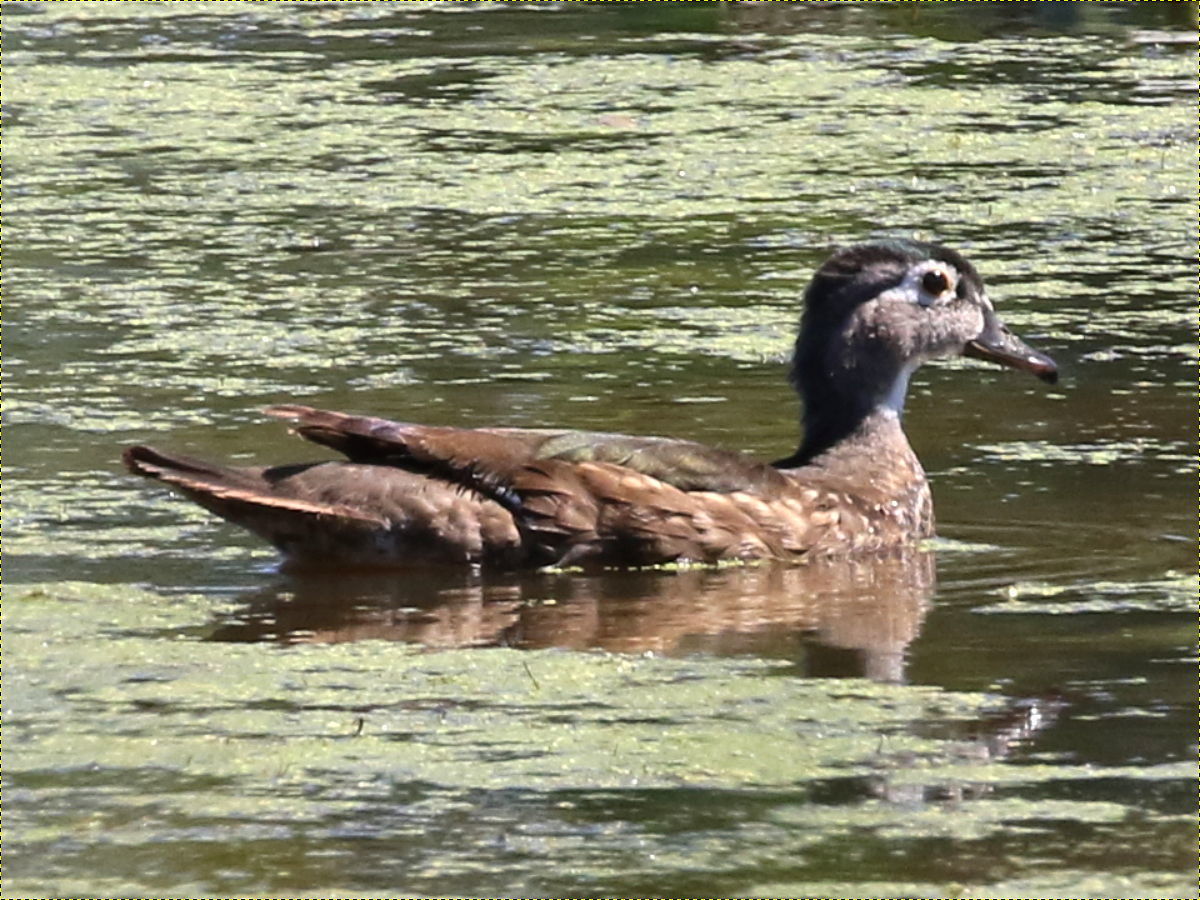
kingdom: Animalia
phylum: Chordata
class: Aves
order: Anseriformes
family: Anatidae
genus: Aix
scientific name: Aix sponsa
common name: Wood duck
